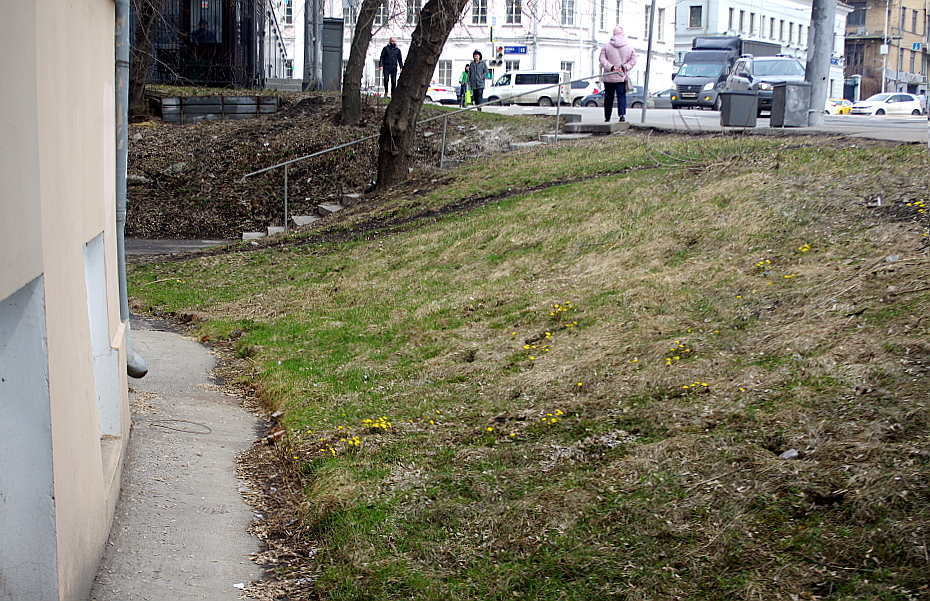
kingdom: Plantae
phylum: Tracheophyta
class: Magnoliopsida
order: Asterales
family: Asteraceae
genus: Tussilago
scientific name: Tussilago farfara
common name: Coltsfoot
